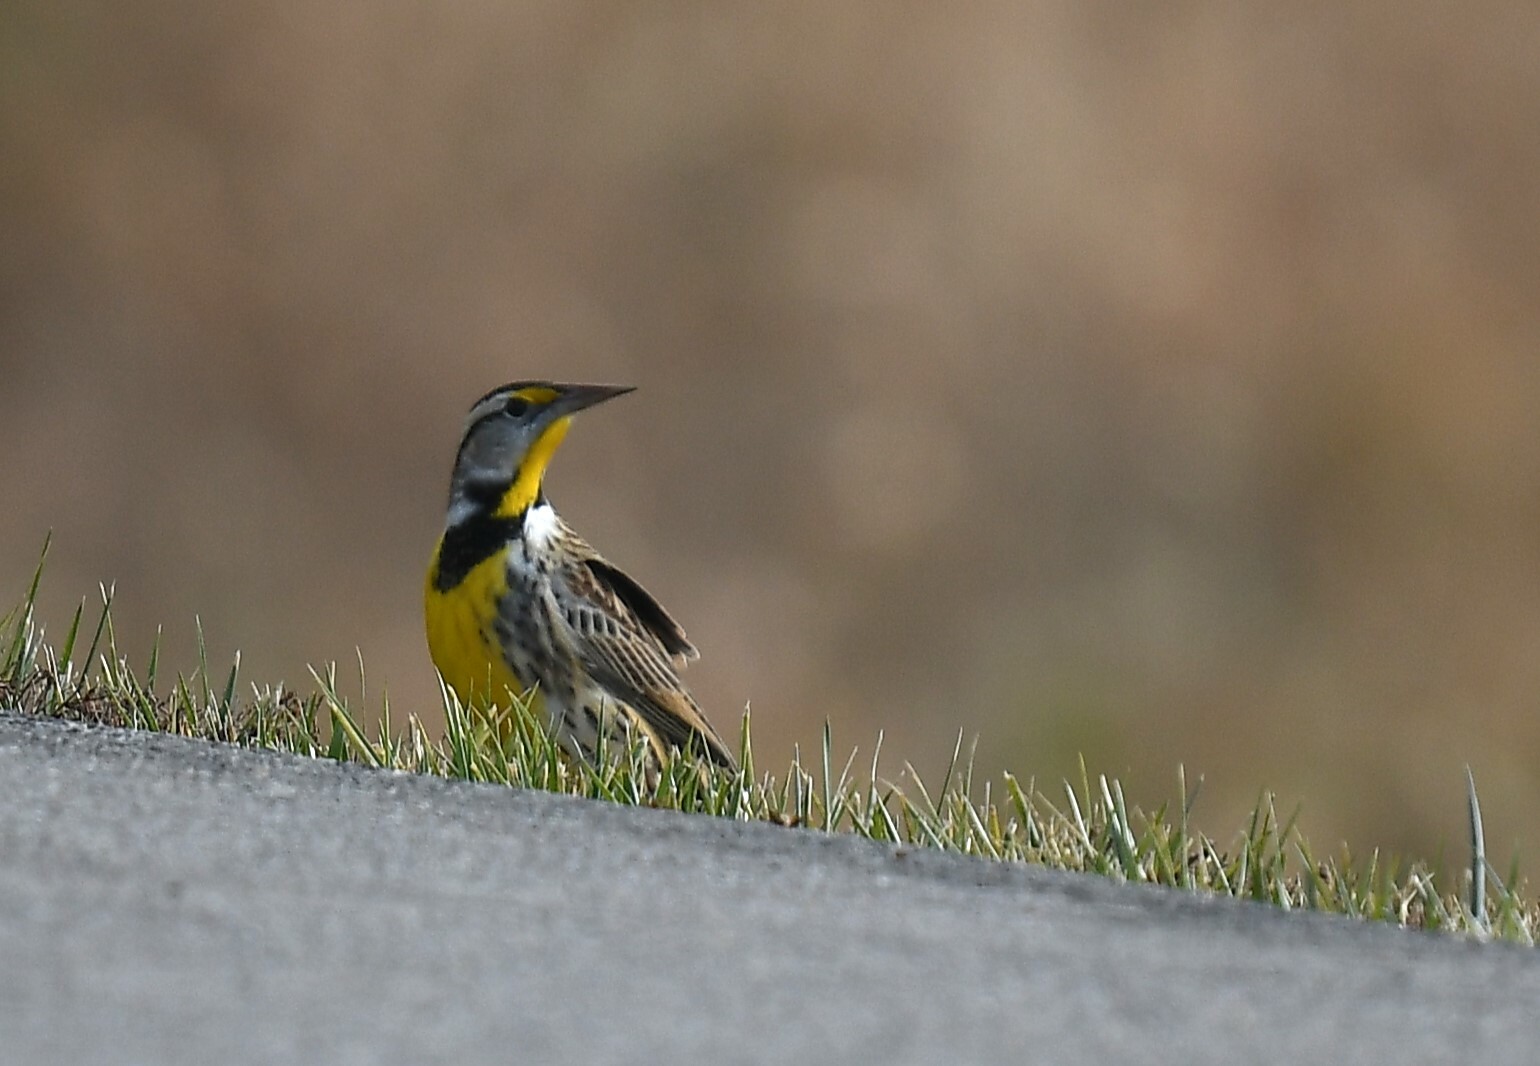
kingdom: Animalia
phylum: Chordata
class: Aves
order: Passeriformes
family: Icteridae
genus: Sturnella
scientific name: Sturnella magna
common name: Eastern meadowlark
